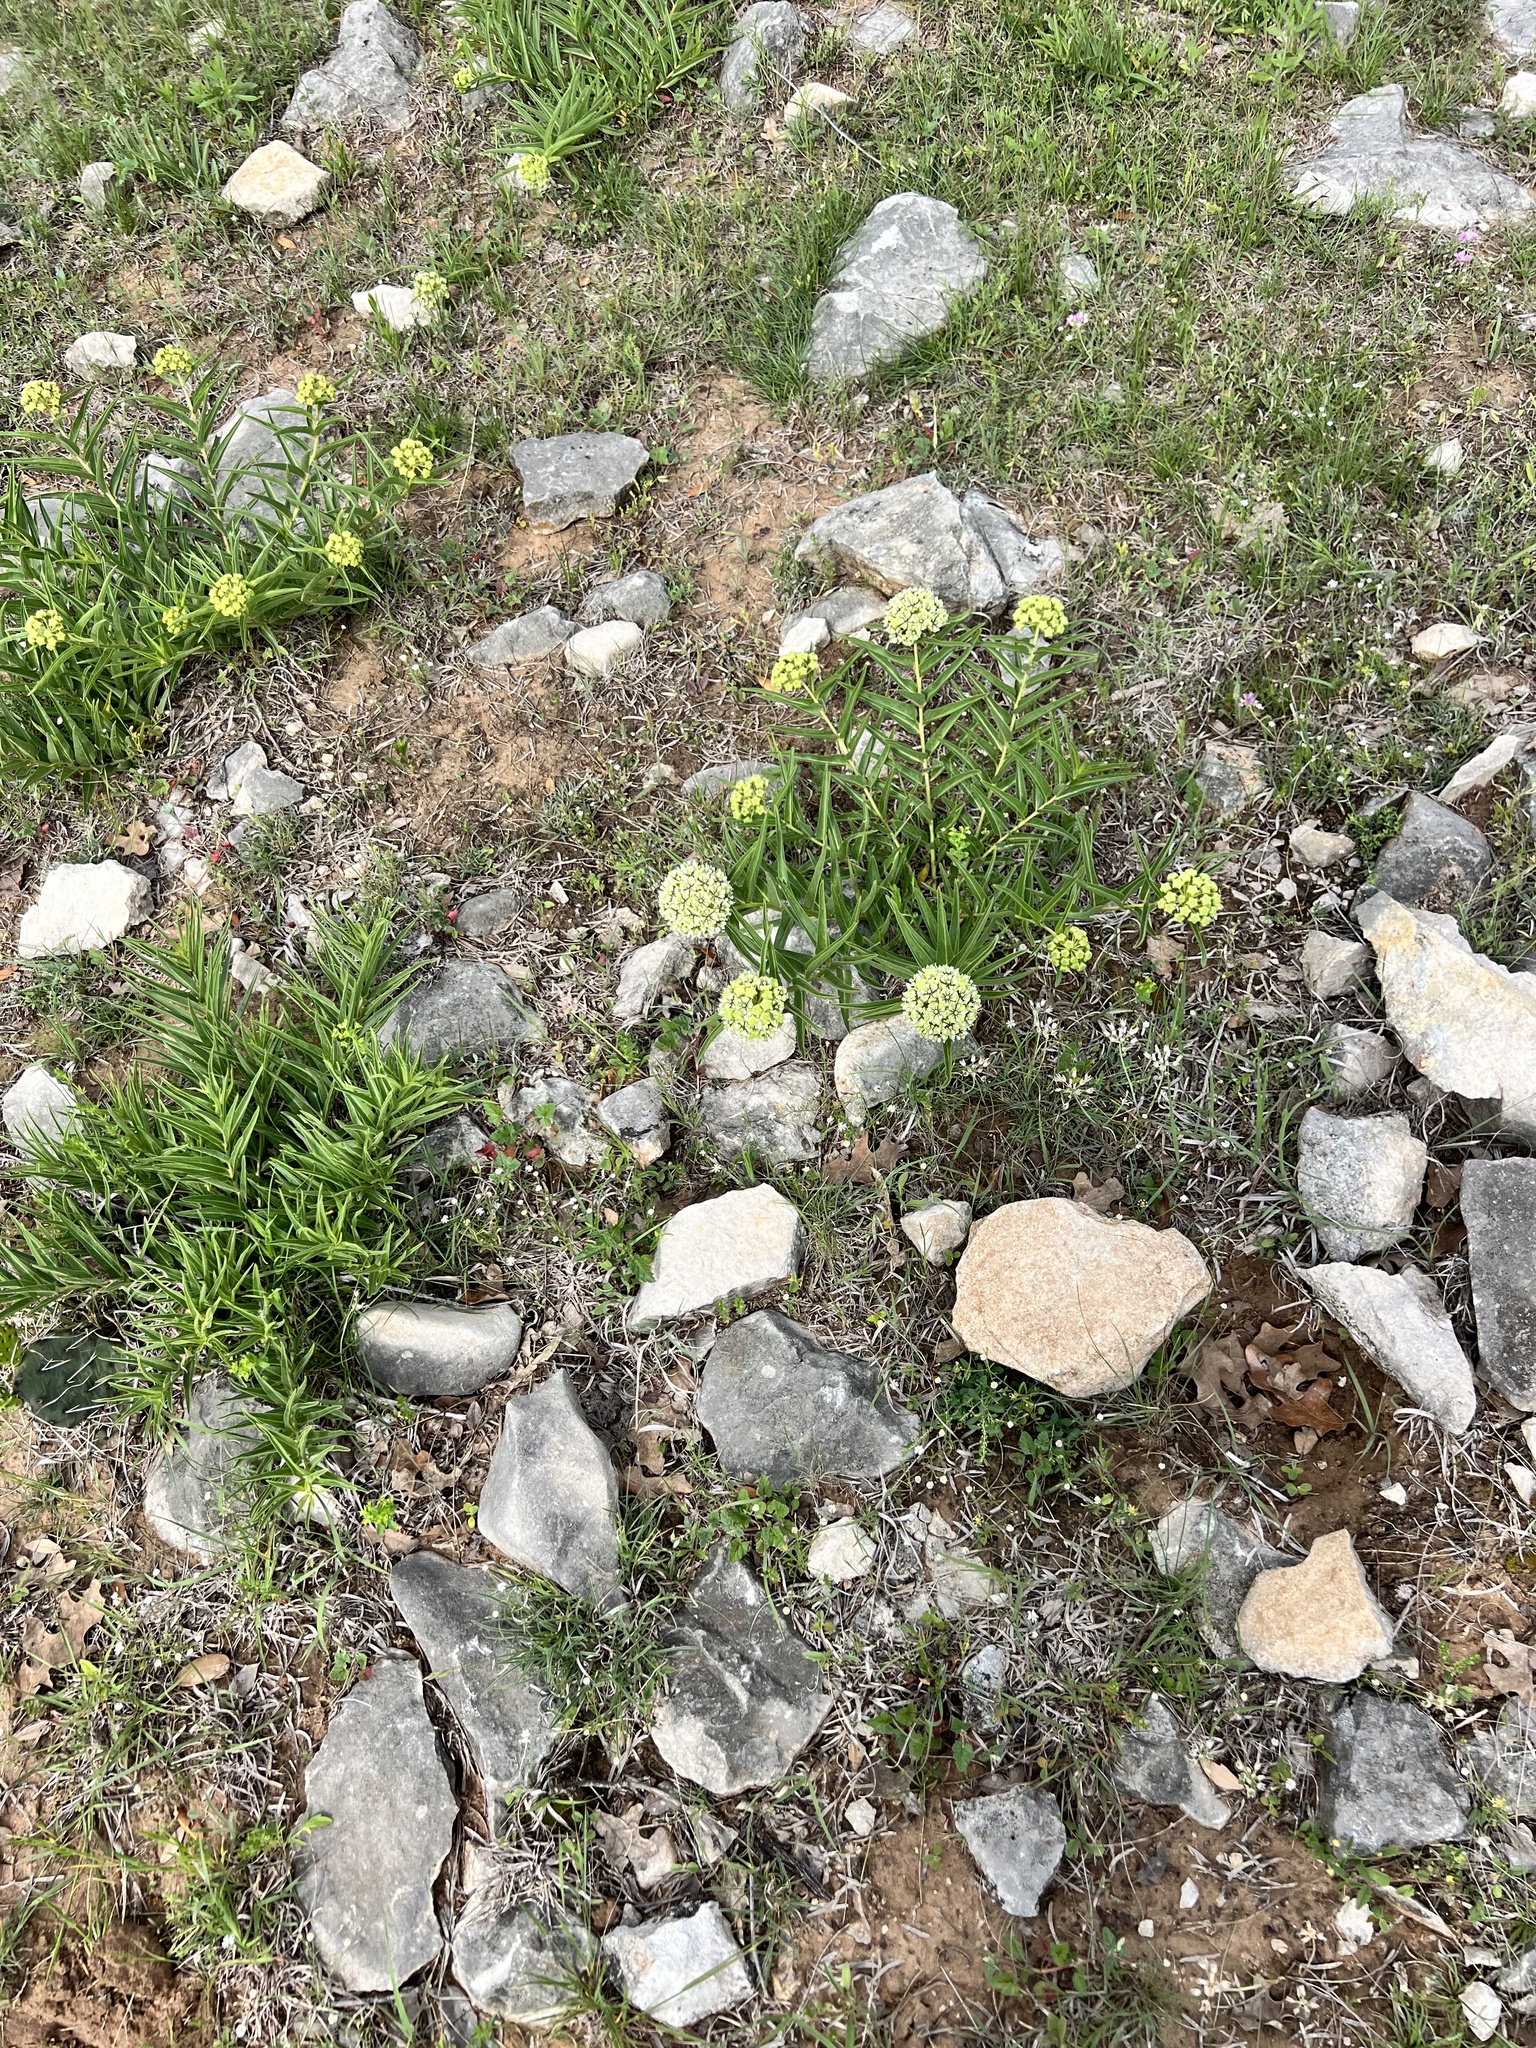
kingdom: Plantae
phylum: Tracheophyta
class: Magnoliopsida
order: Gentianales
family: Apocynaceae
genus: Asclepias
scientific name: Asclepias asperula
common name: Antelope horns
